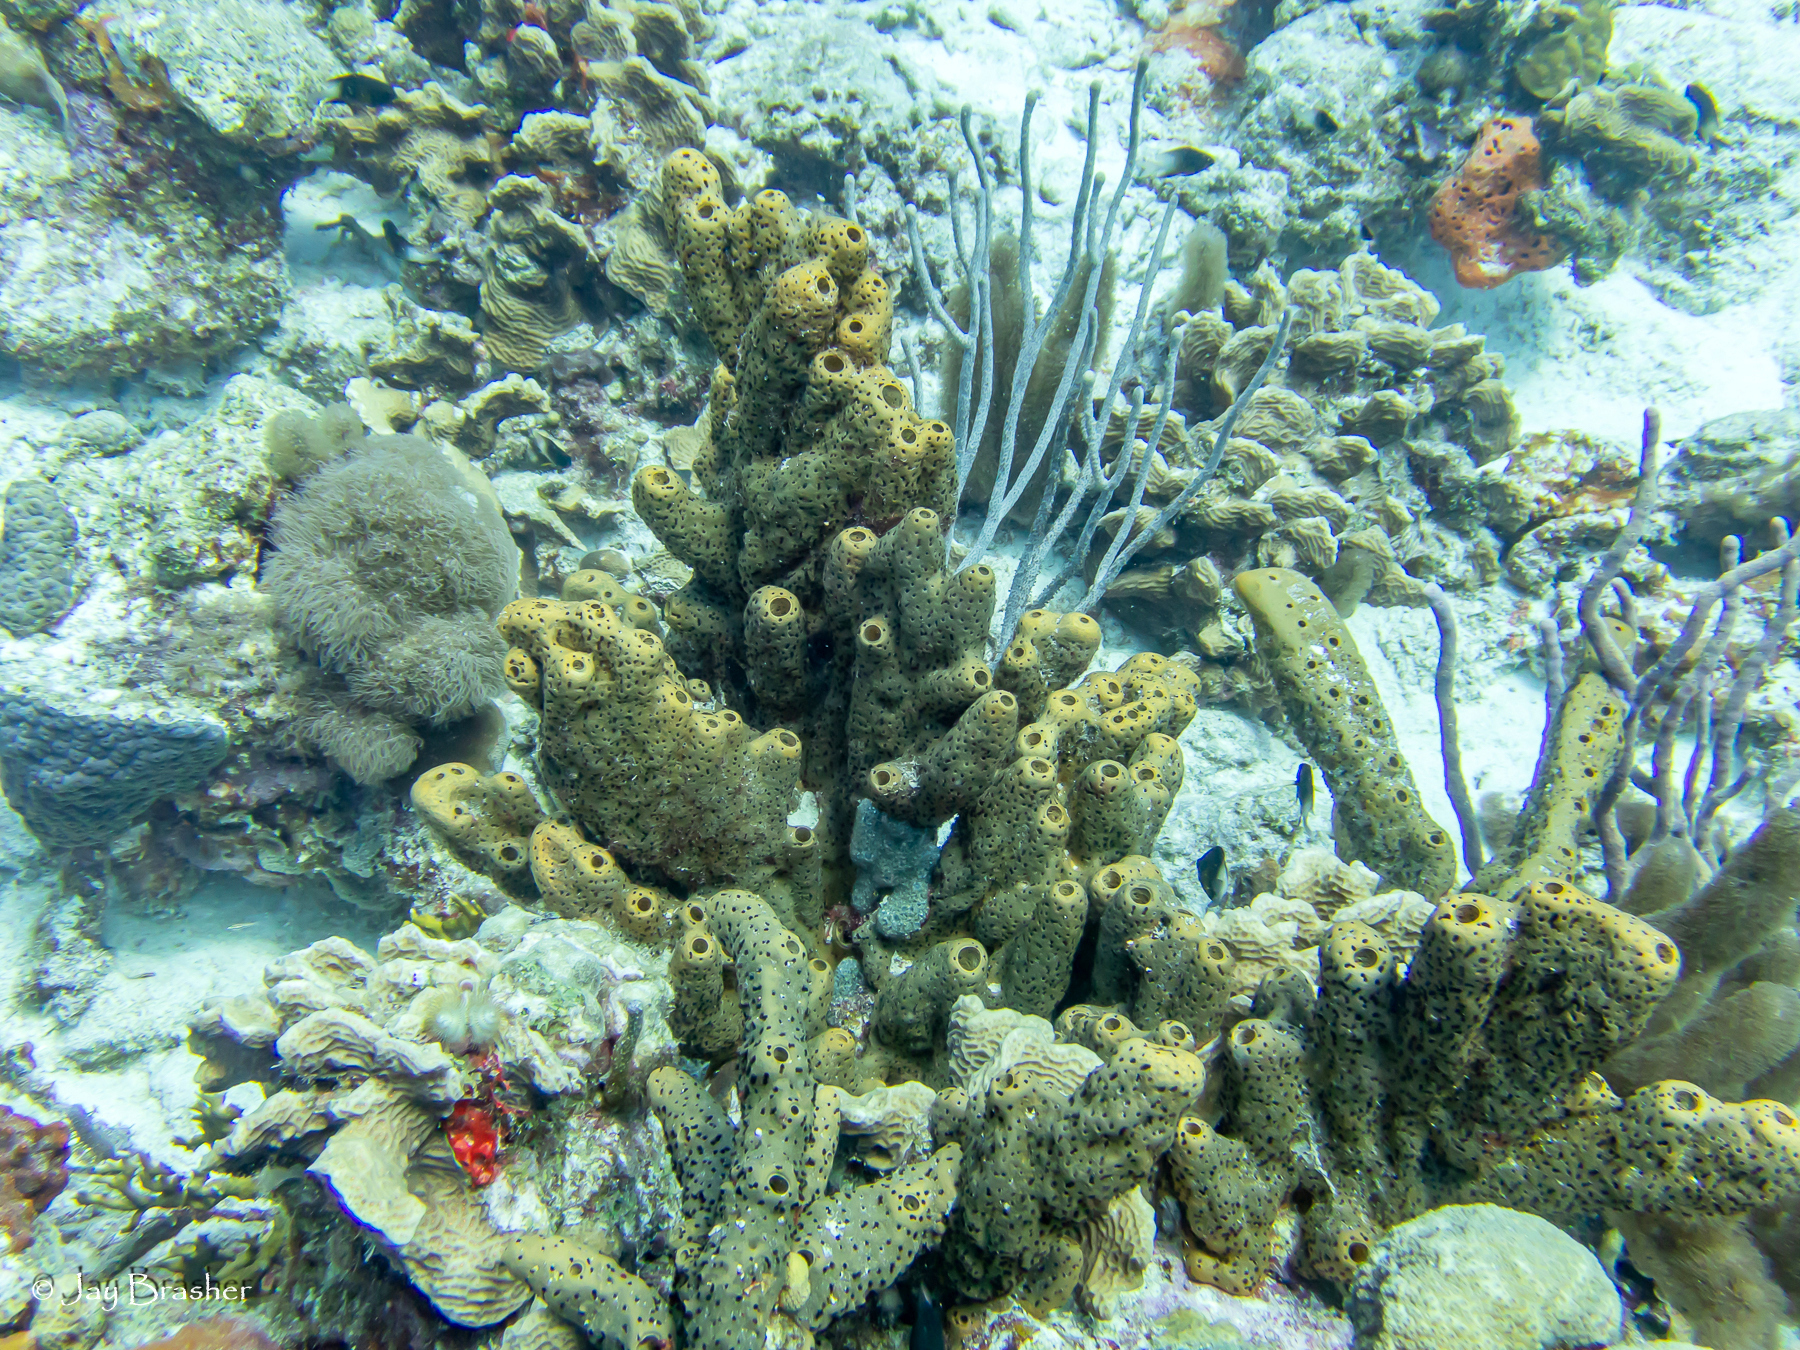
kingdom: Animalia
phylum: Porifera
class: Demospongiae
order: Agelasida
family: Agelasidae
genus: Agelas
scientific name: Agelas conifera
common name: Brown tube sponge
